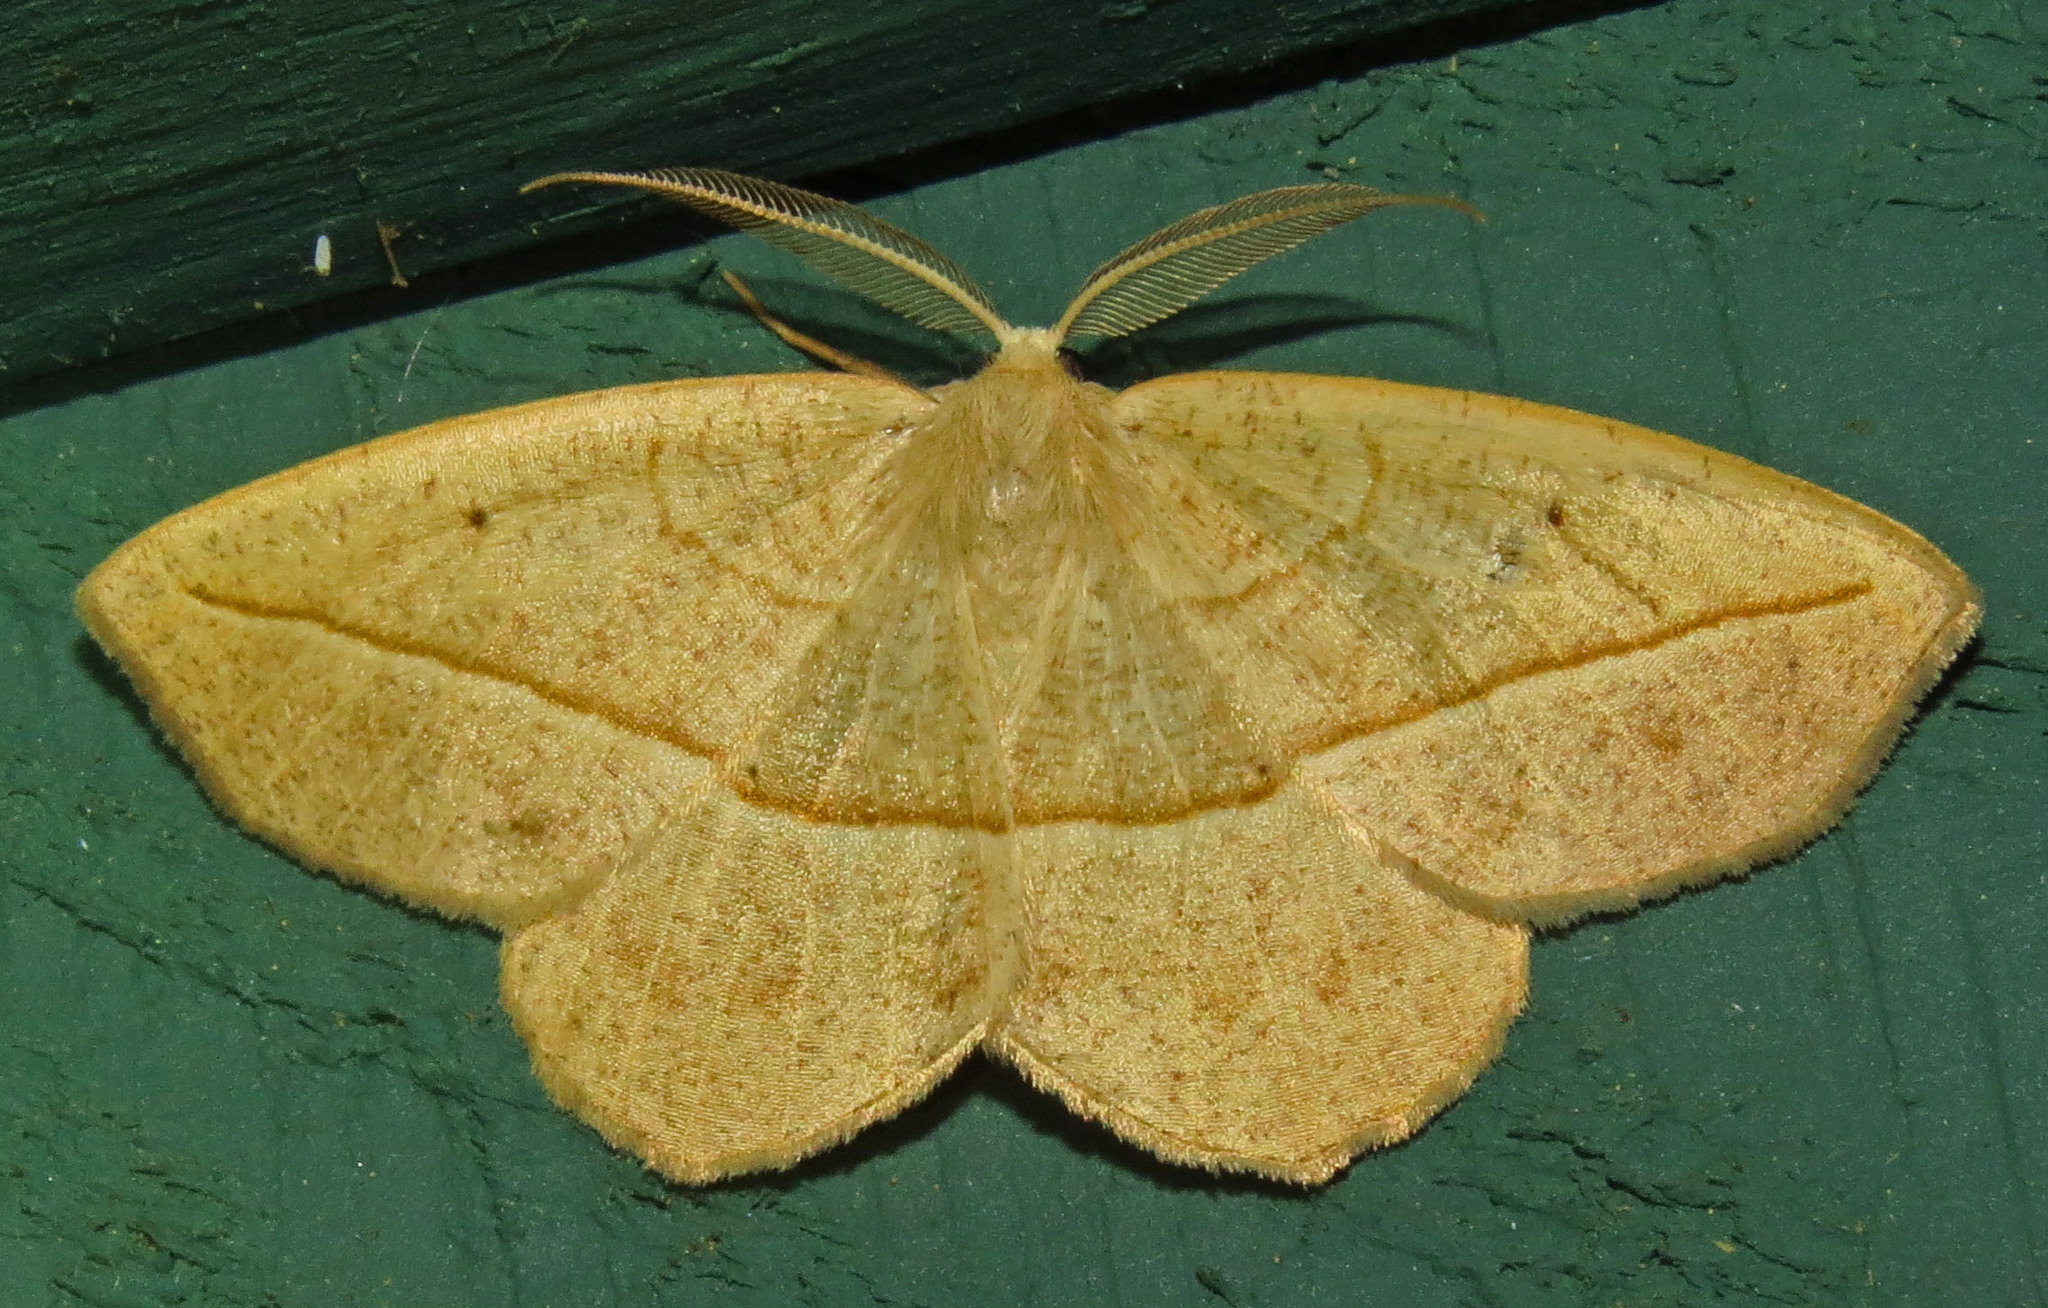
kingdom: Animalia
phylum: Arthropoda
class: Insecta
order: Lepidoptera
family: Geometridae
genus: Eusarca
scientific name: Eusarca confusaria
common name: Confused eusarca
